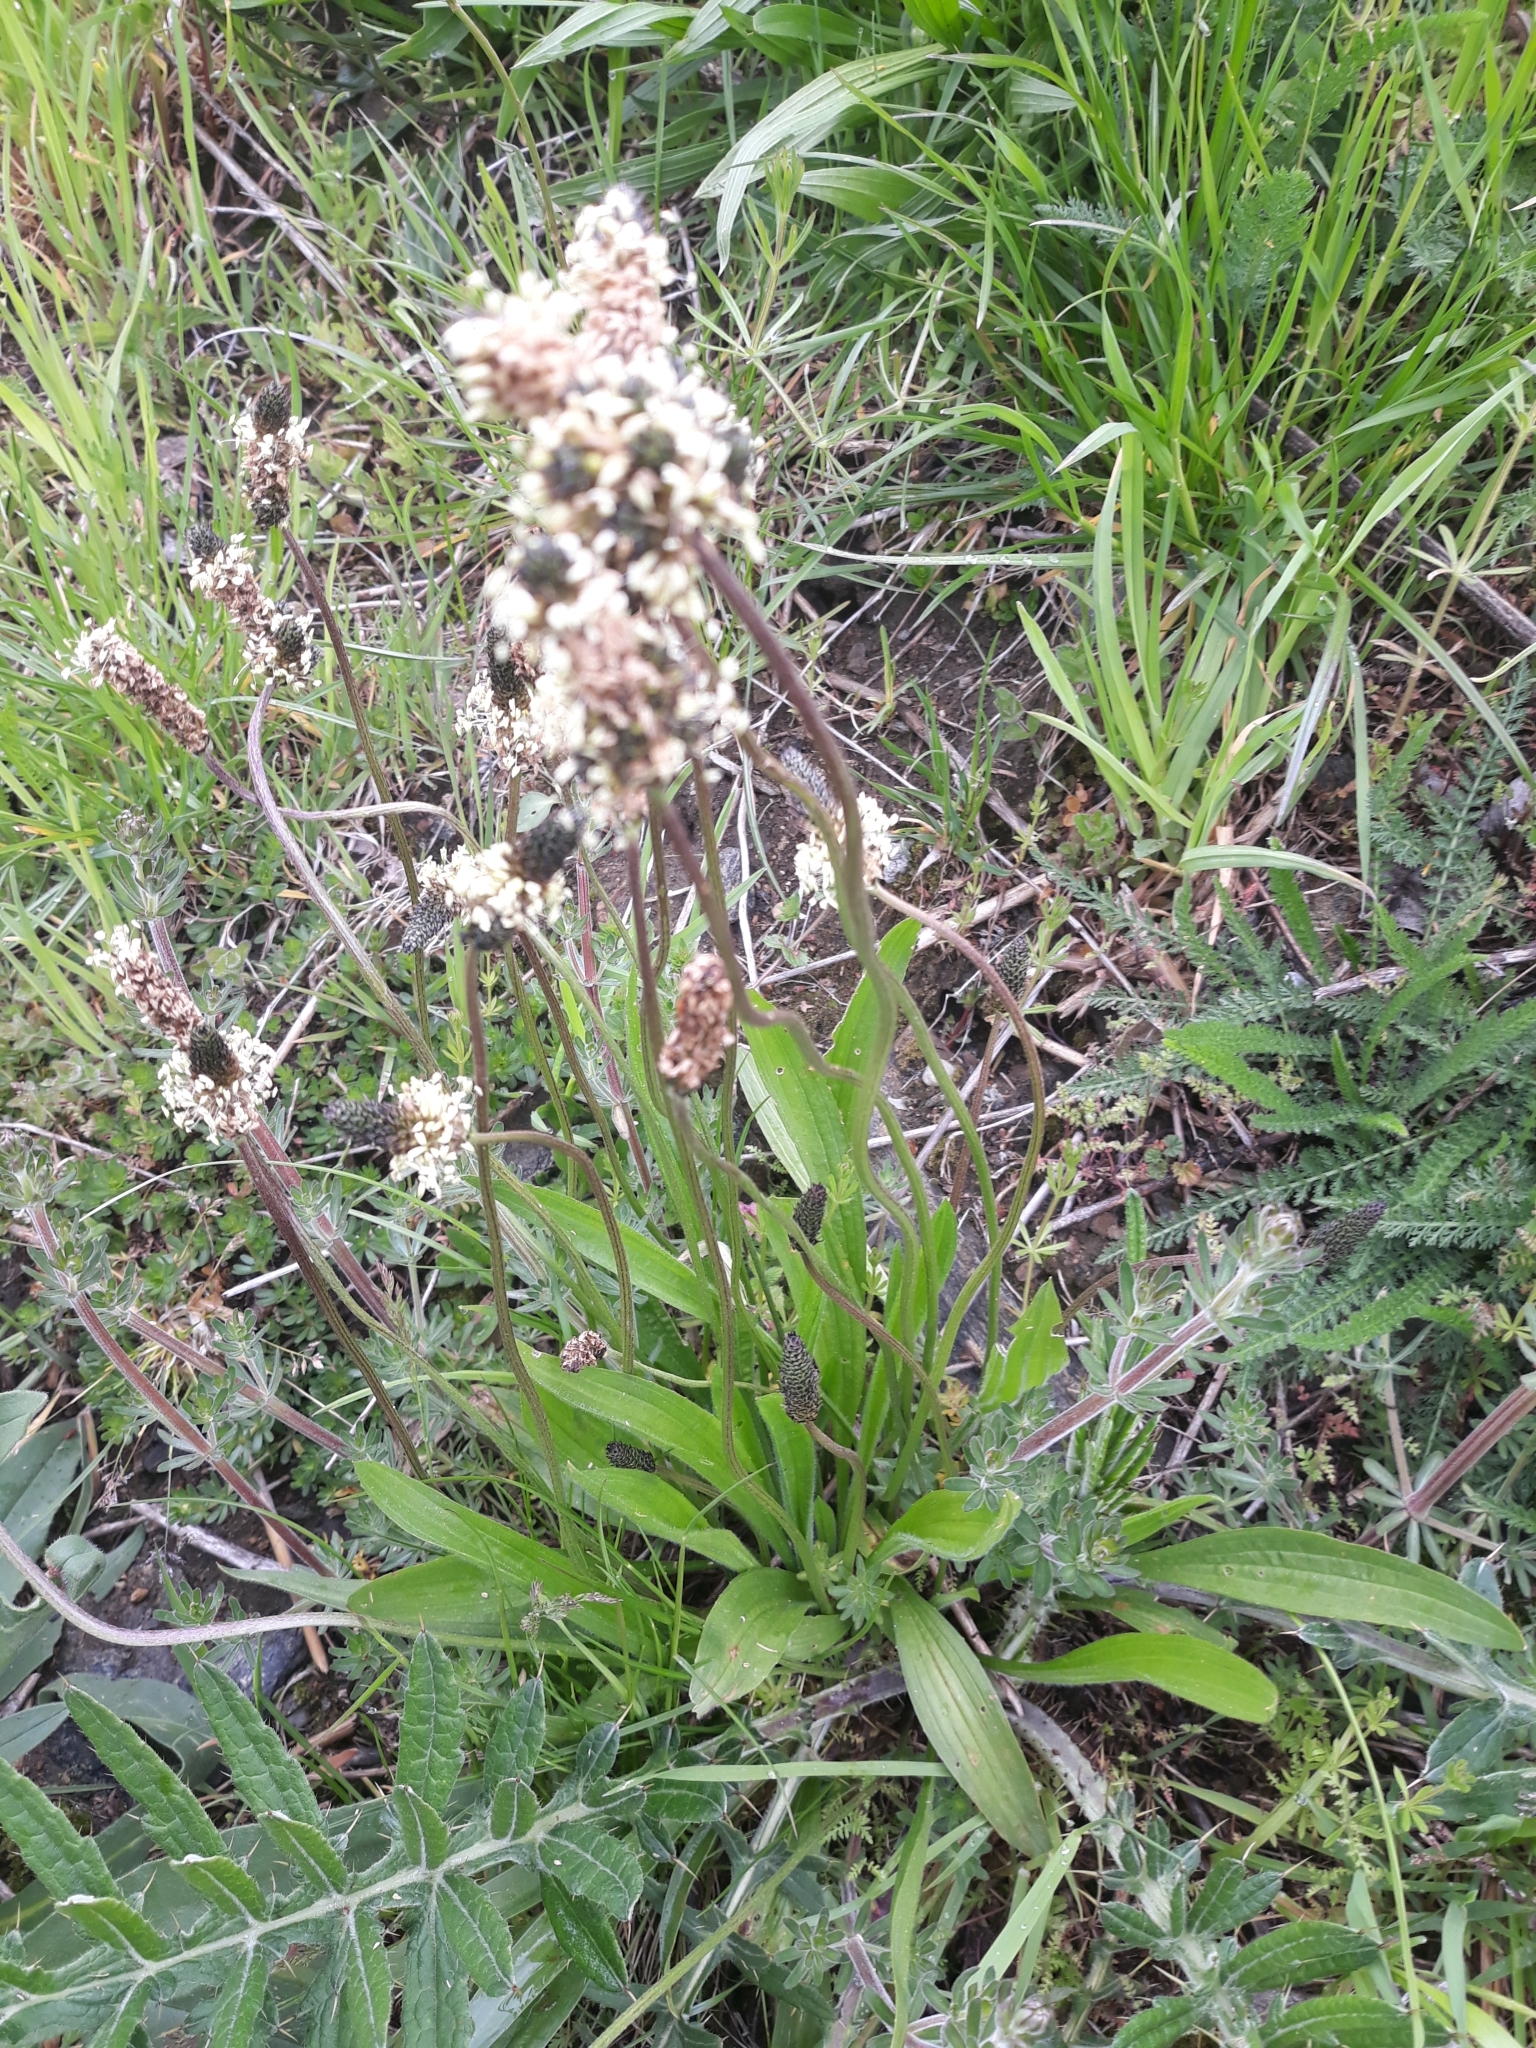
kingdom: Plantae
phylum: Tracheophyta
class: Magnoliopsida
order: Lamiales
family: Plantaginaceae
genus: Plantago
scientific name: Plantago lanceolata
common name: Ribwort plantain
